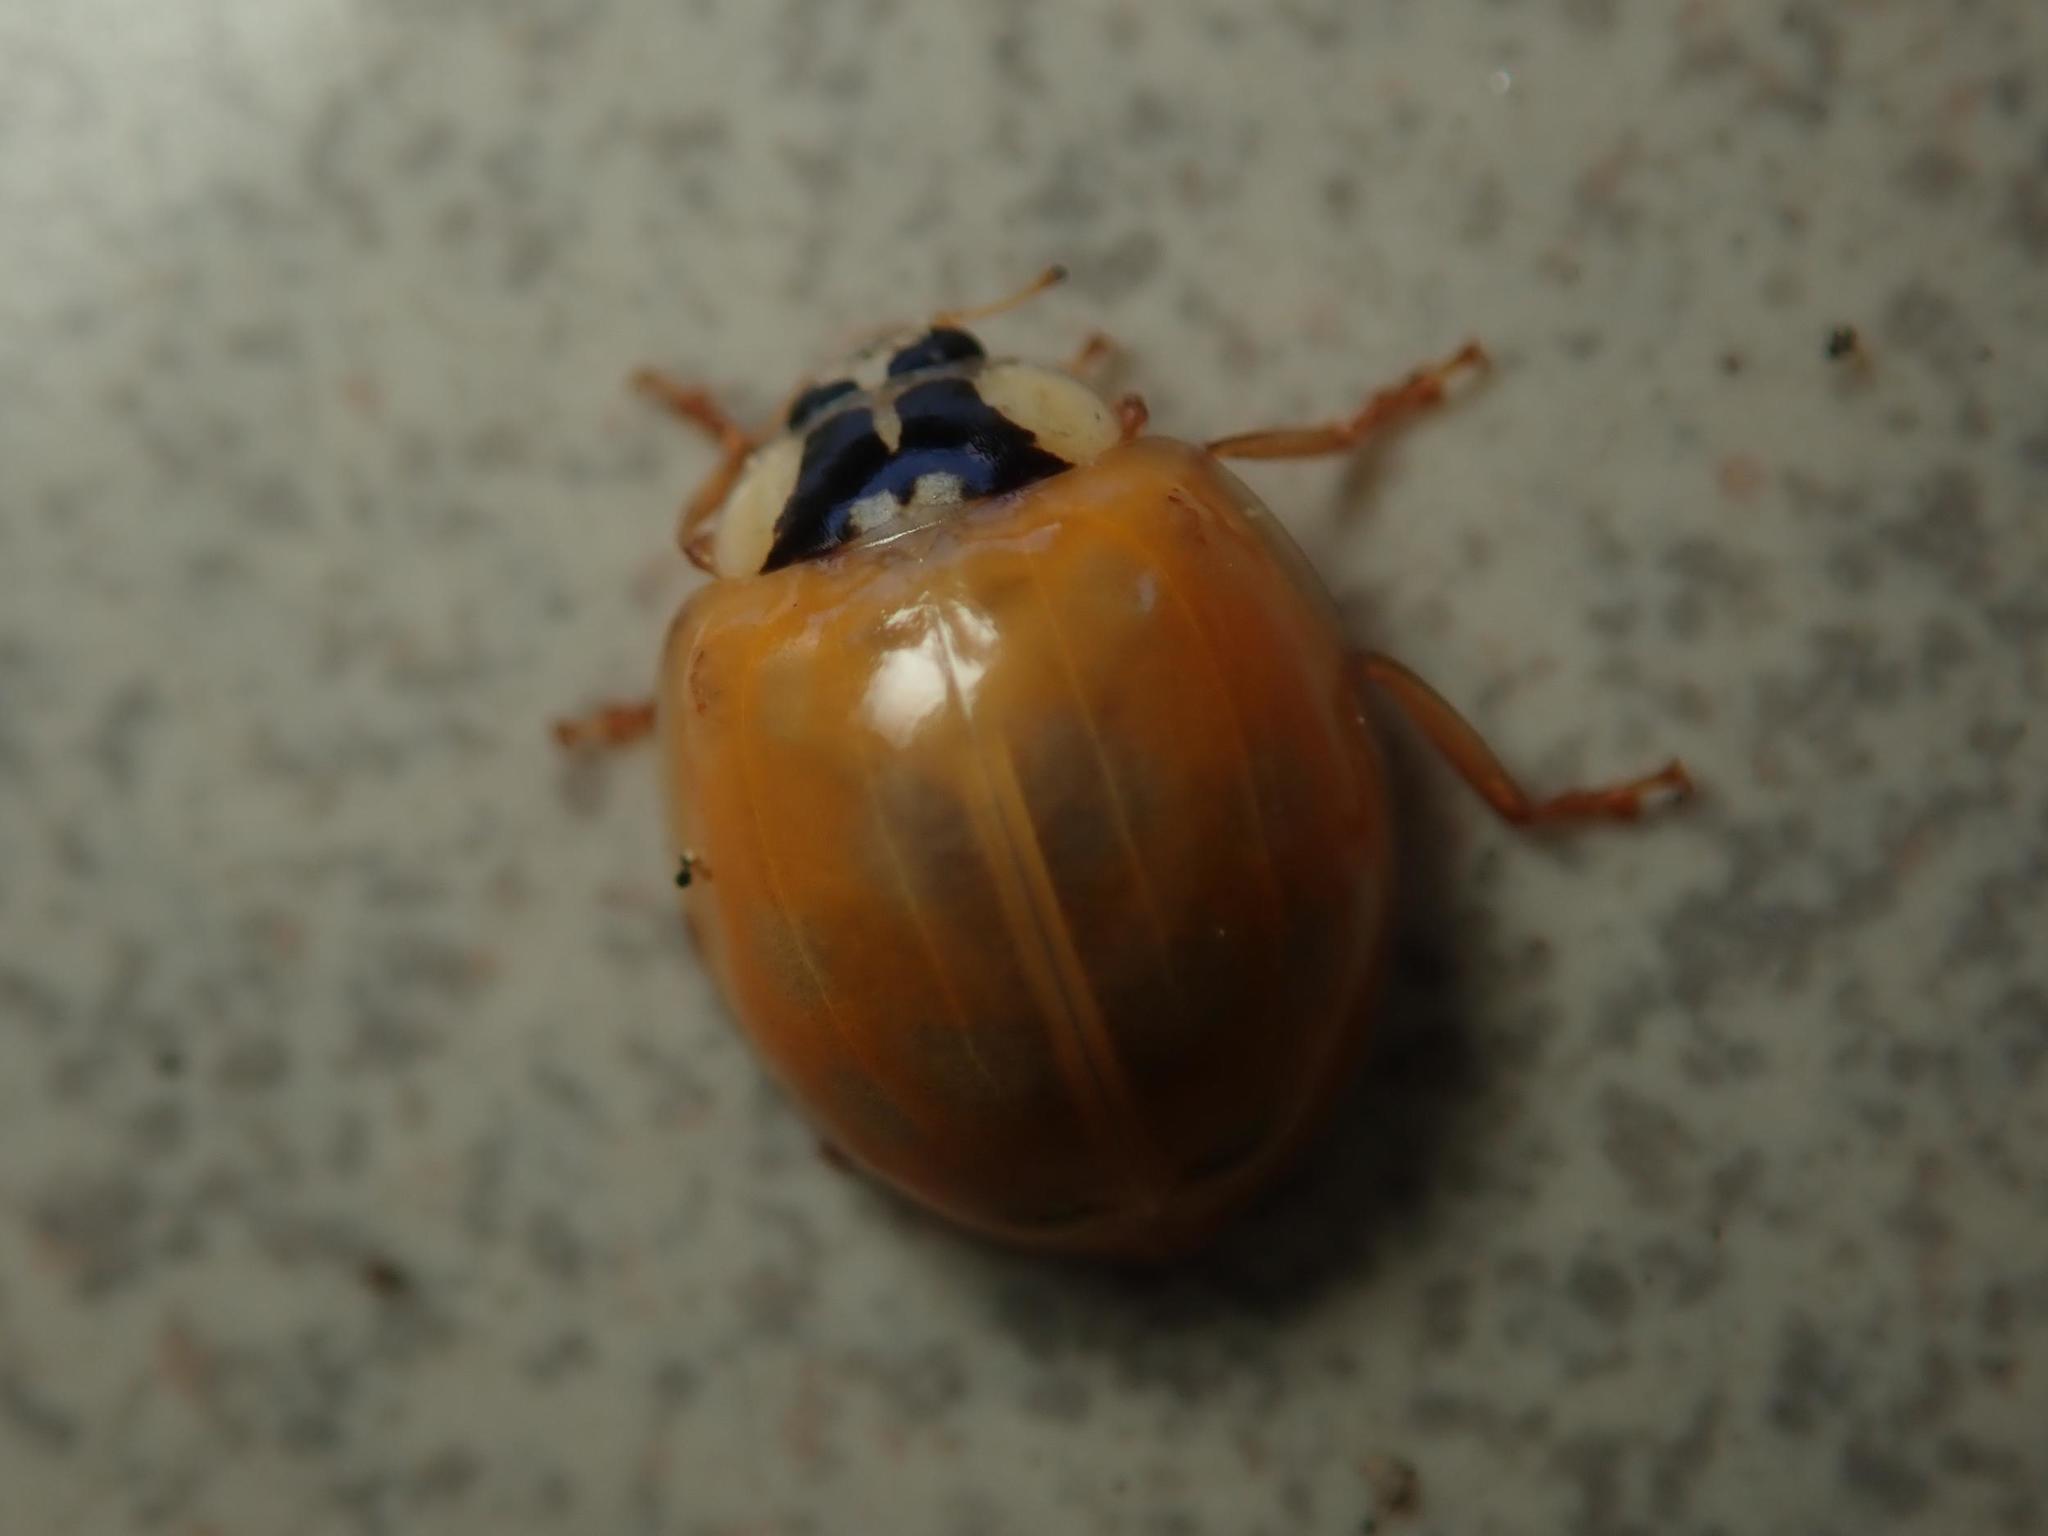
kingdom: Animalia
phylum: Arthropoda
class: Insecta
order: Coleoptera
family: Coccinellidae
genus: Harmonia
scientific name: Harmonia axyridis
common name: Harlequin ladybird
